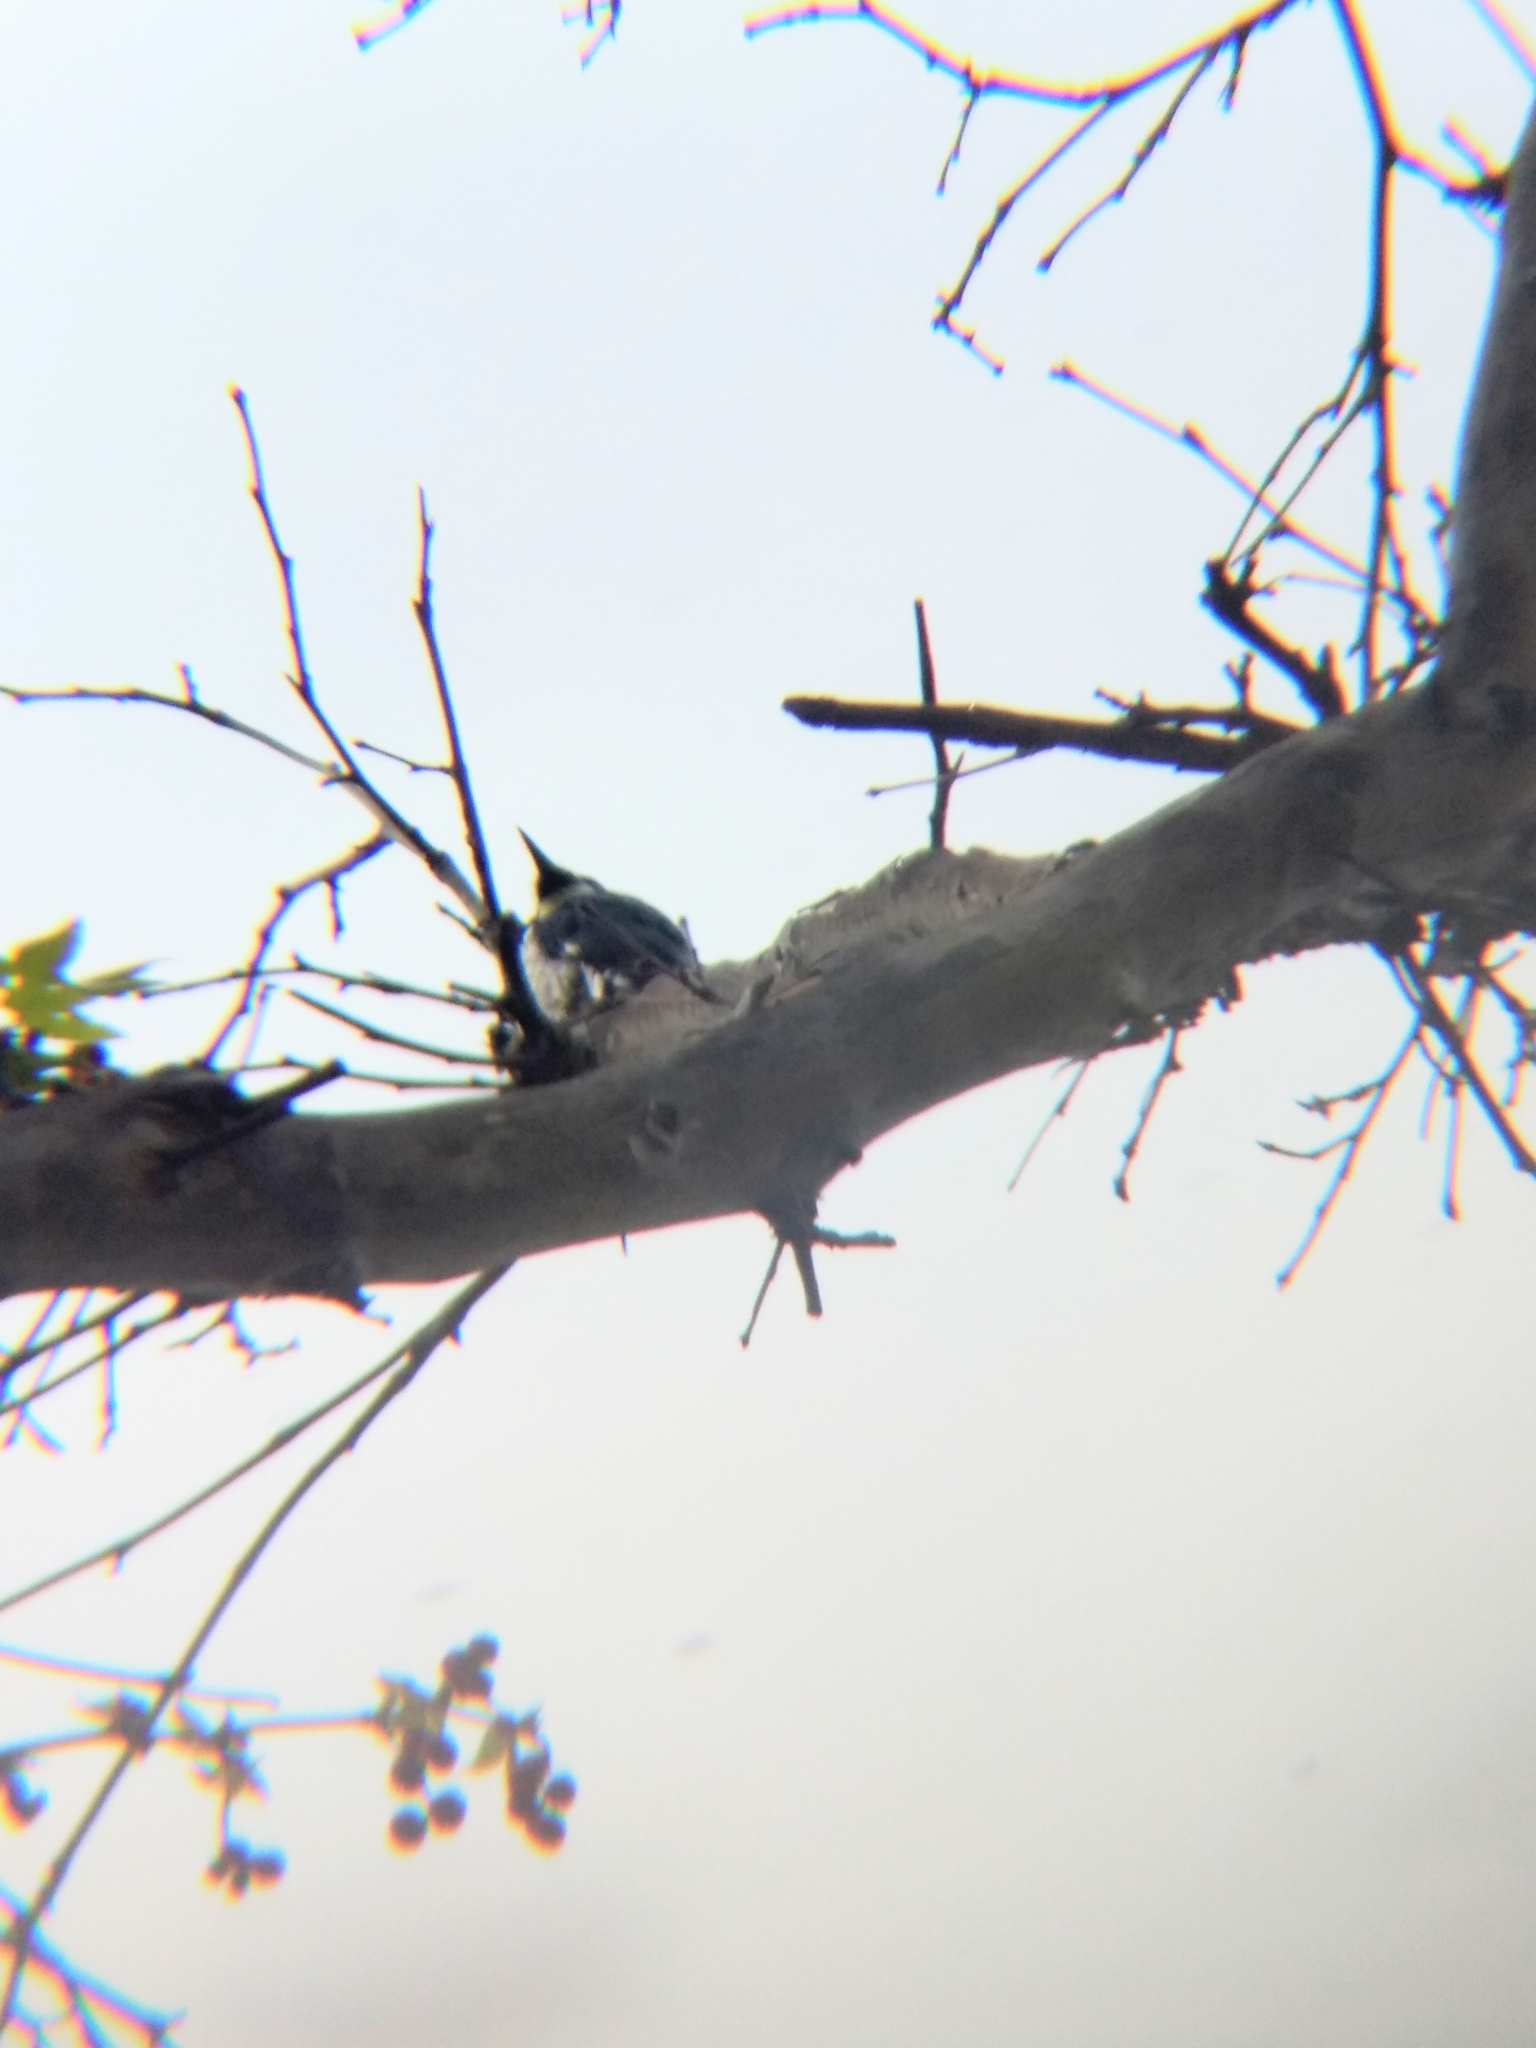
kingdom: Animalia
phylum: Chordata
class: Aves
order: Piciformes
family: Picidae
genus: Melanerpes
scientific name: Melanerpes formicivorus
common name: Acorn woodpecker
